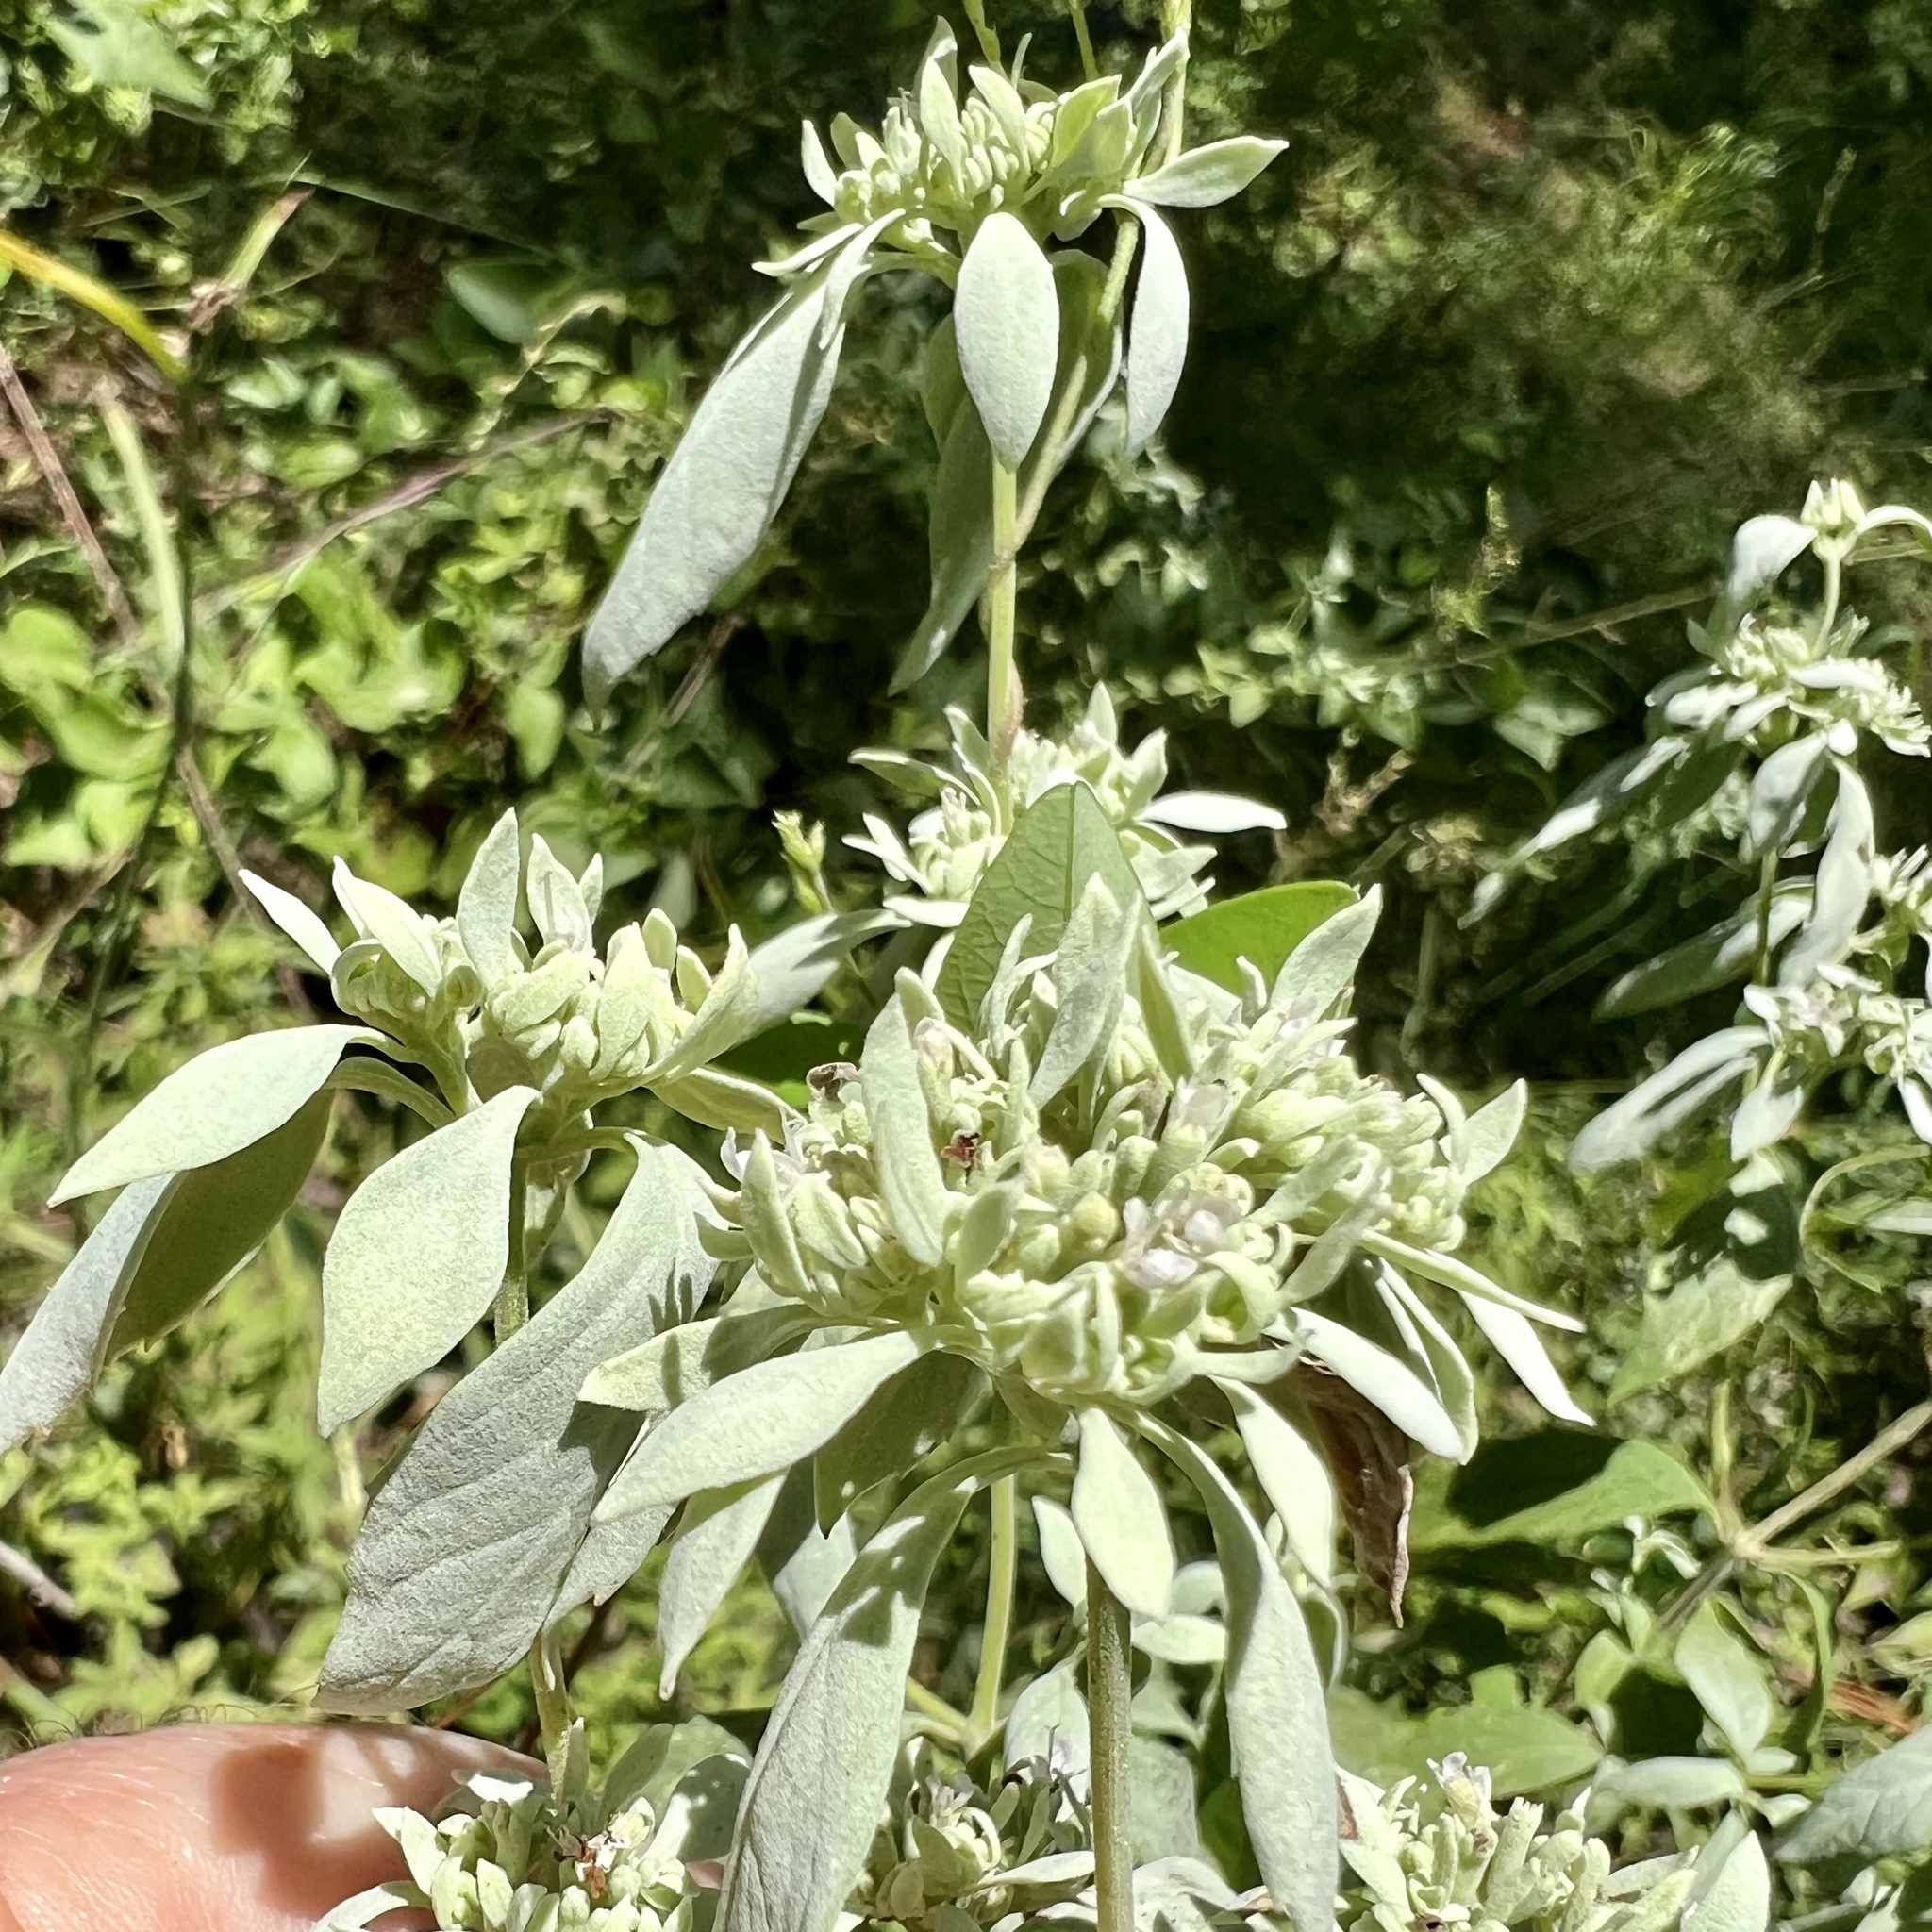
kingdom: Plantae
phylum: Tracheophyta
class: Magnoliopsida
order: Lamiales
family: Lamiaceae
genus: Pycnanthemum
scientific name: Pycnanthemum albescens
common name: White-leaf mountain-mint
